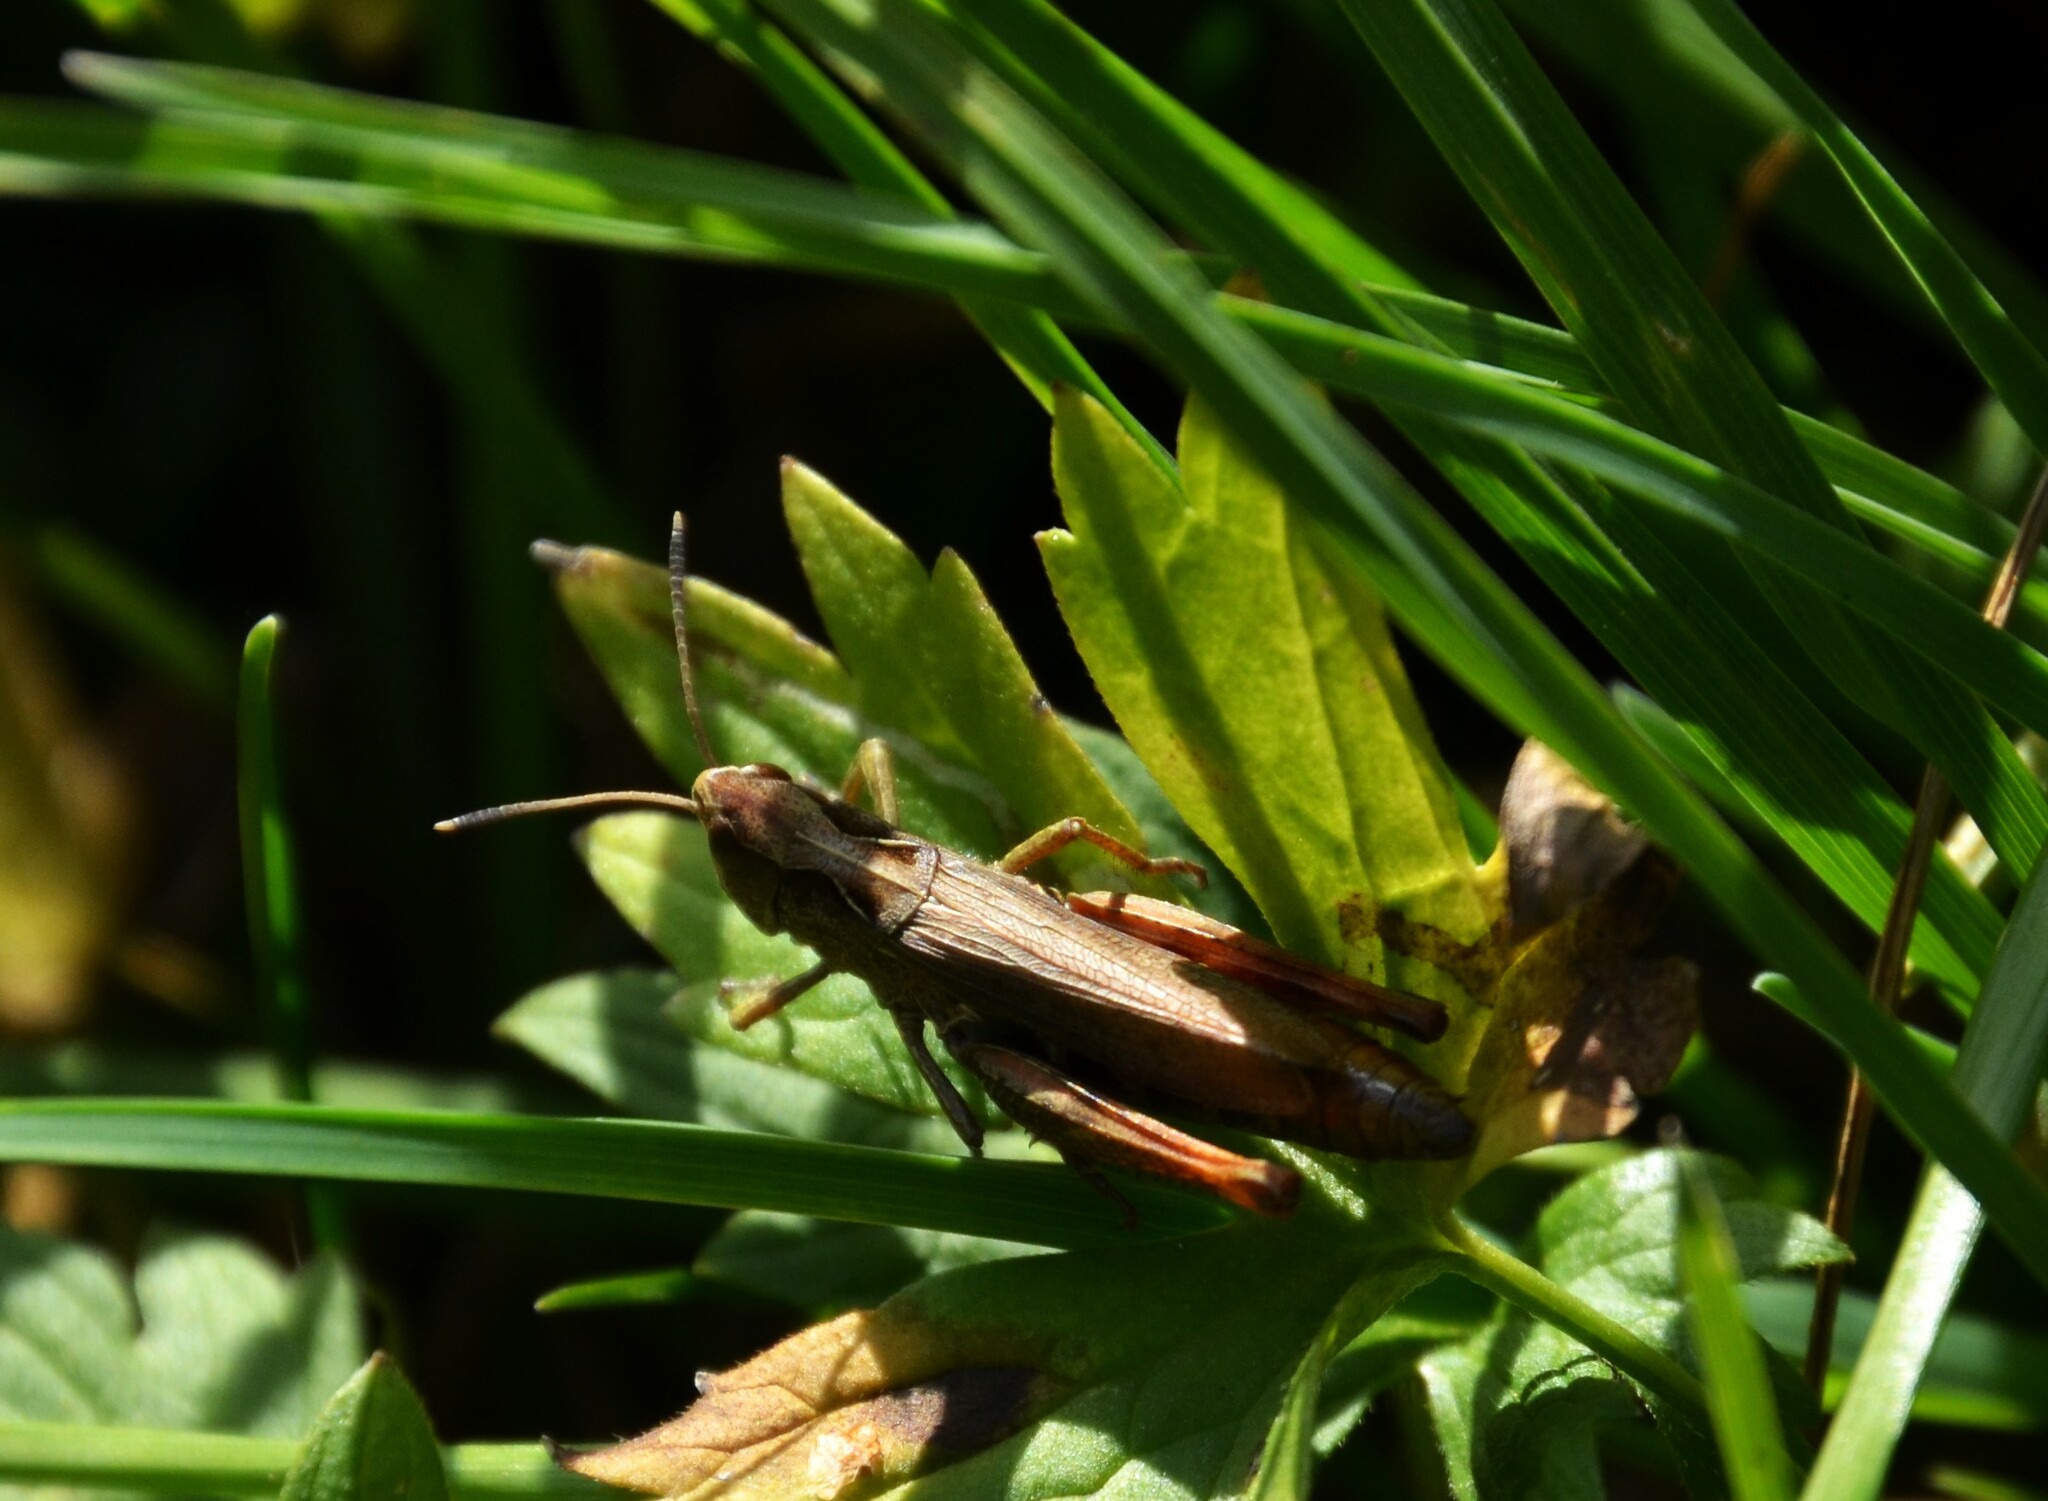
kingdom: Animalia
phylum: Arthropoda
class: Insecta
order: Orthoptera
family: Acrididae
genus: Gomphocerippus
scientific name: Gomphocerippus rufus
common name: Rufous grasshopper
